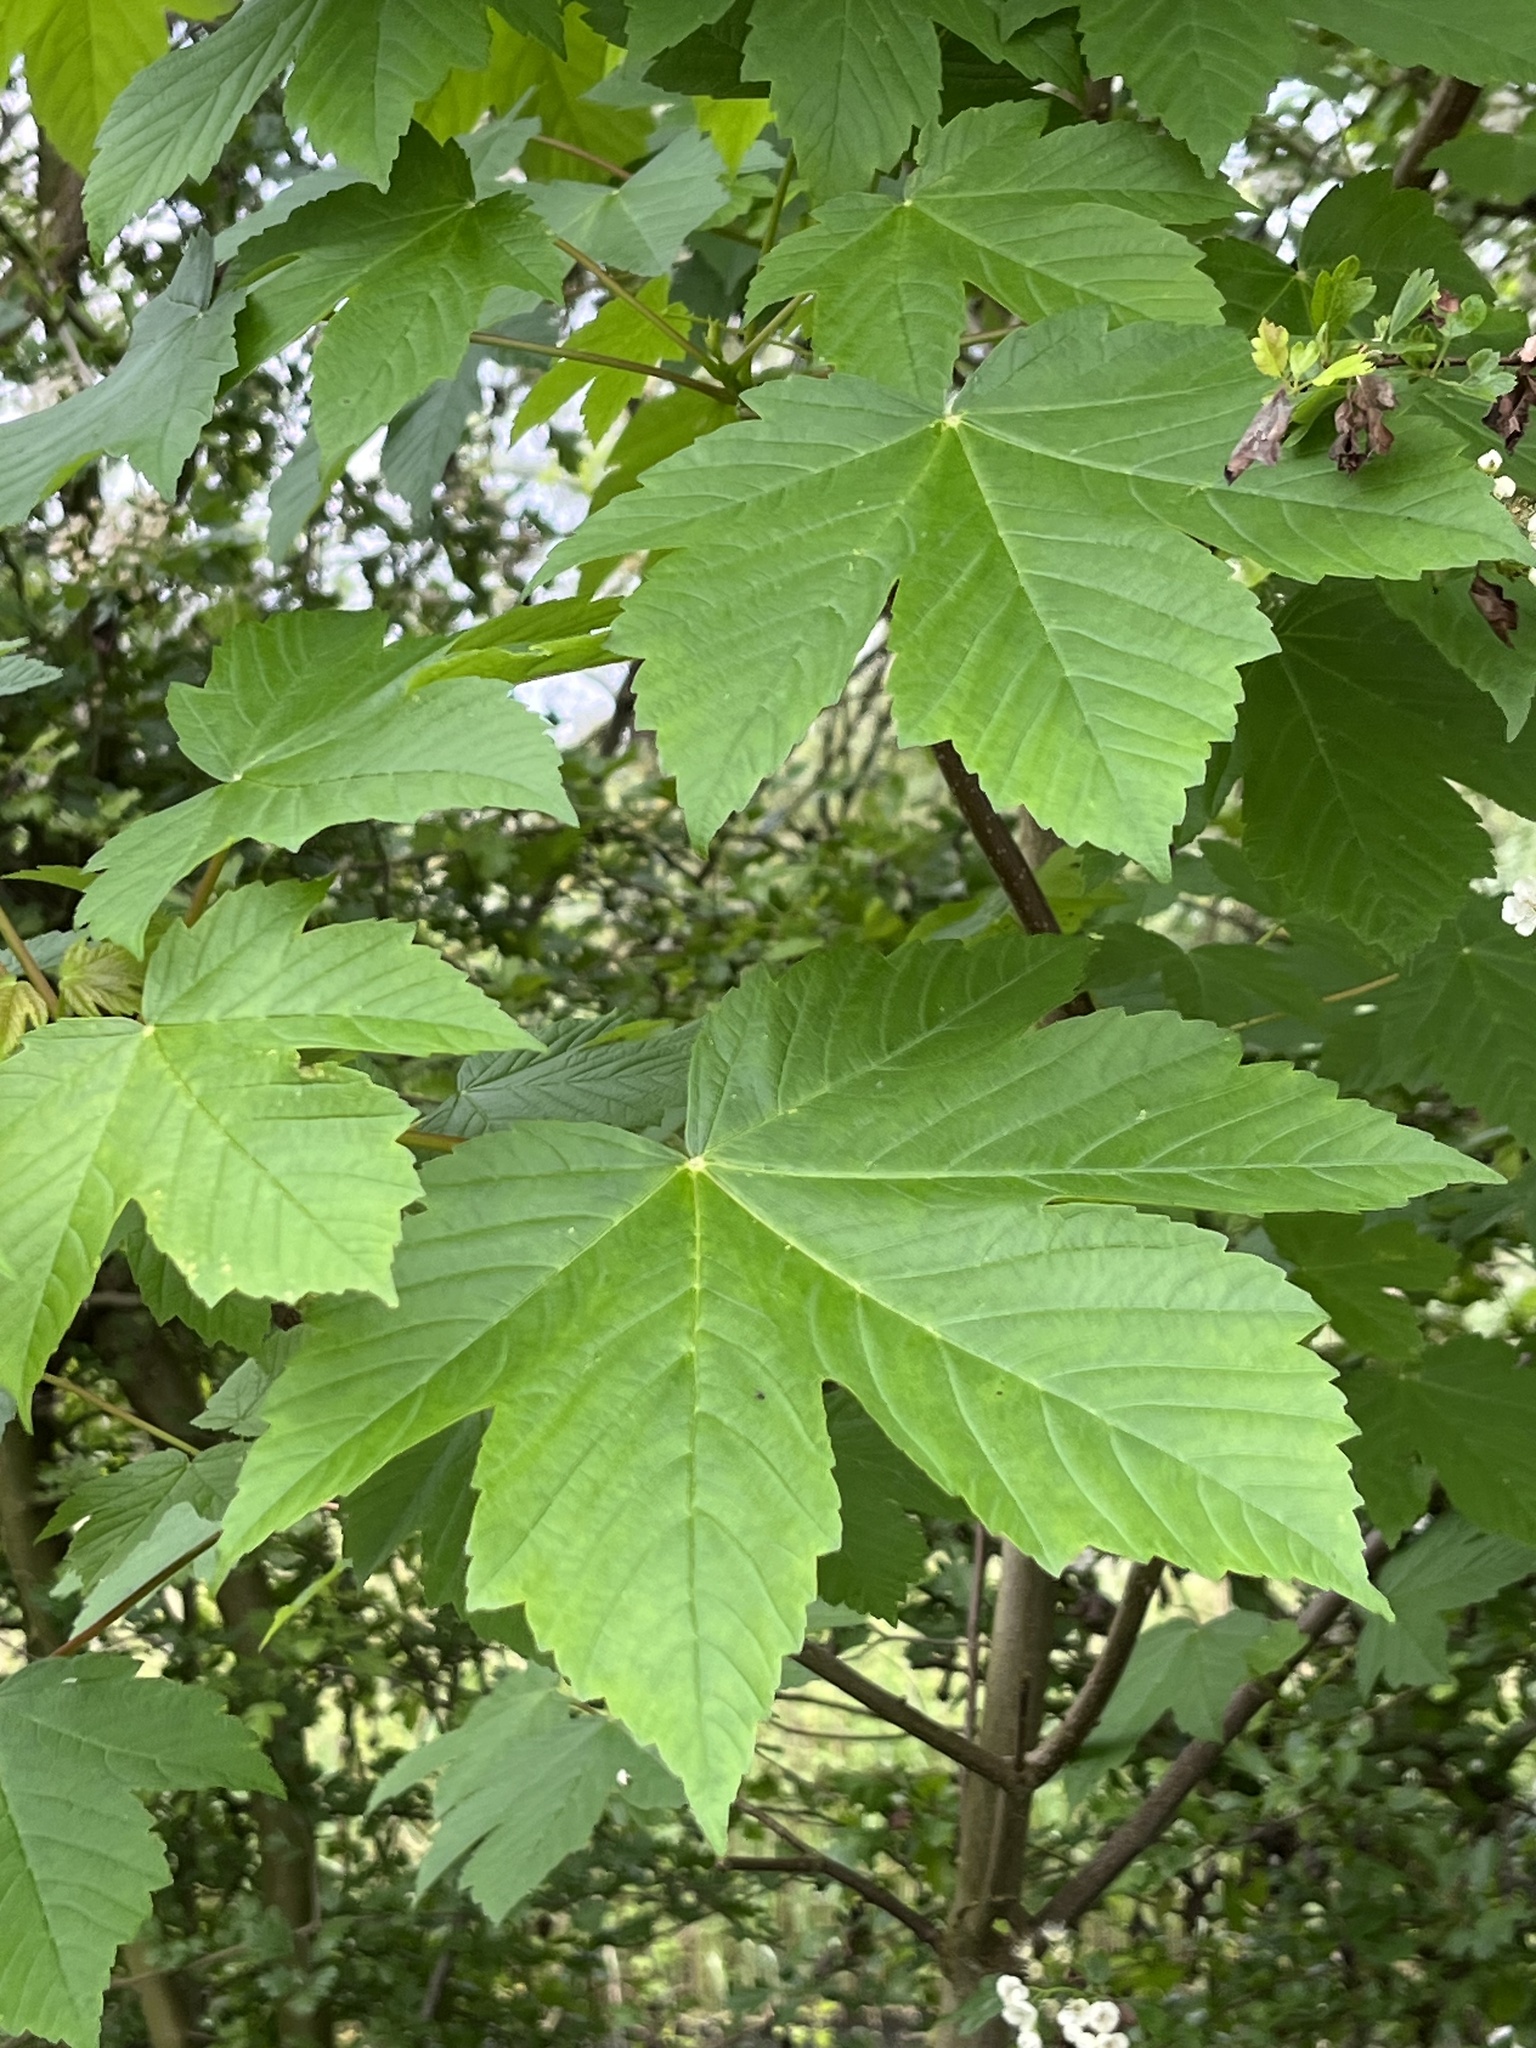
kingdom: Plantae
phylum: Tracheophyta
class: Magnoliopsida
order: Sapindales
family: Sapindaceae
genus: Acer
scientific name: Acer pseudoplatanus
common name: Sycamore
